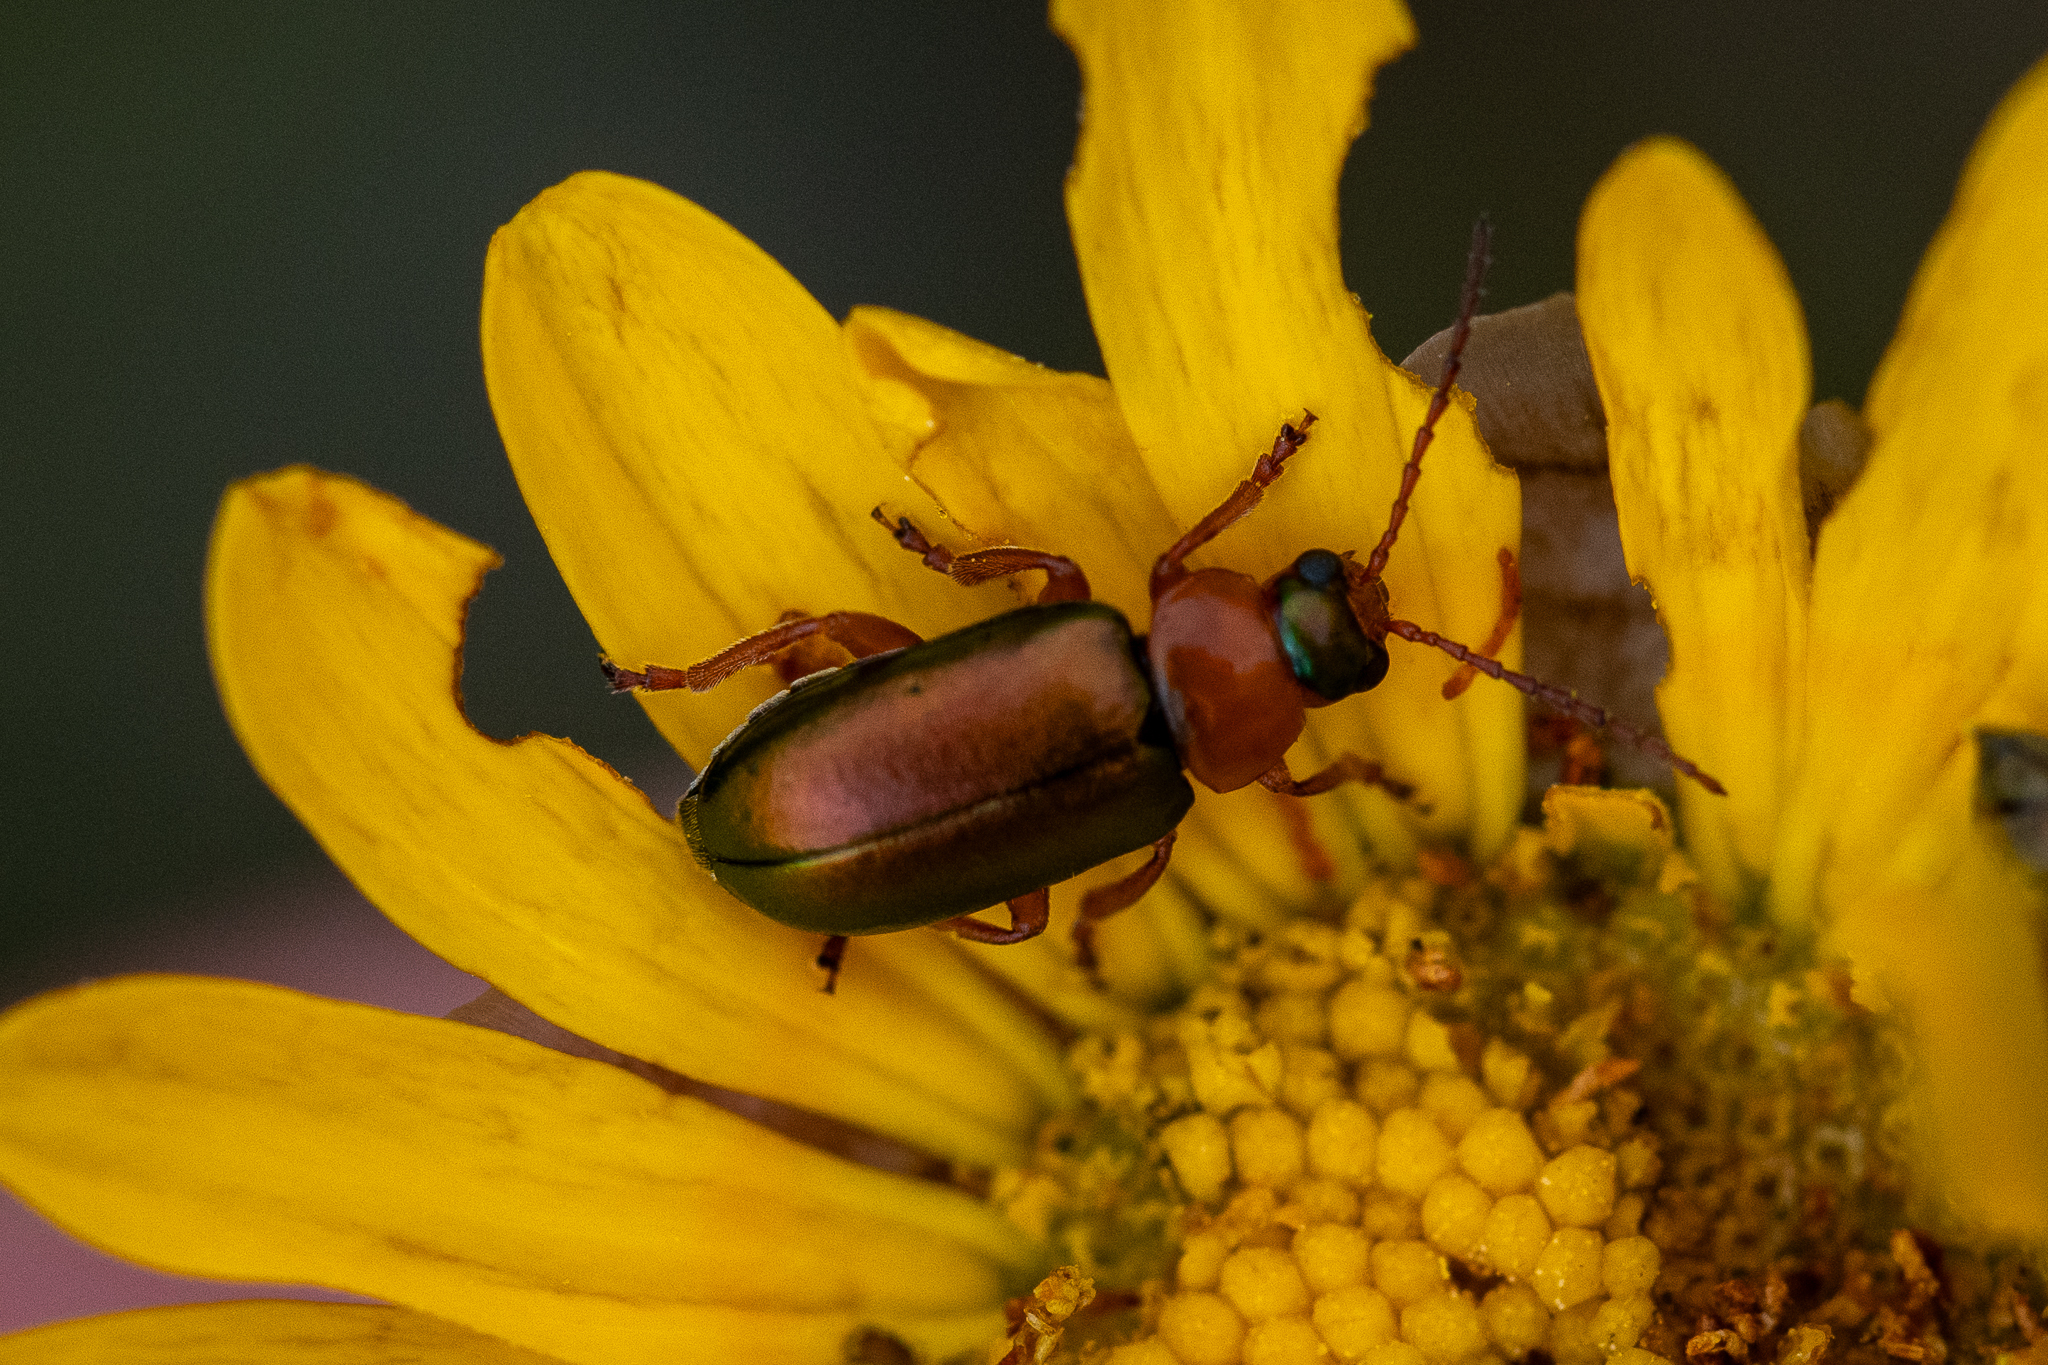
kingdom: Animalia
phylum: Arthropoda
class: Insecta
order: Coleoptera
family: Chrysomelidae
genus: Palaeophylia
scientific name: Palaeophylia
